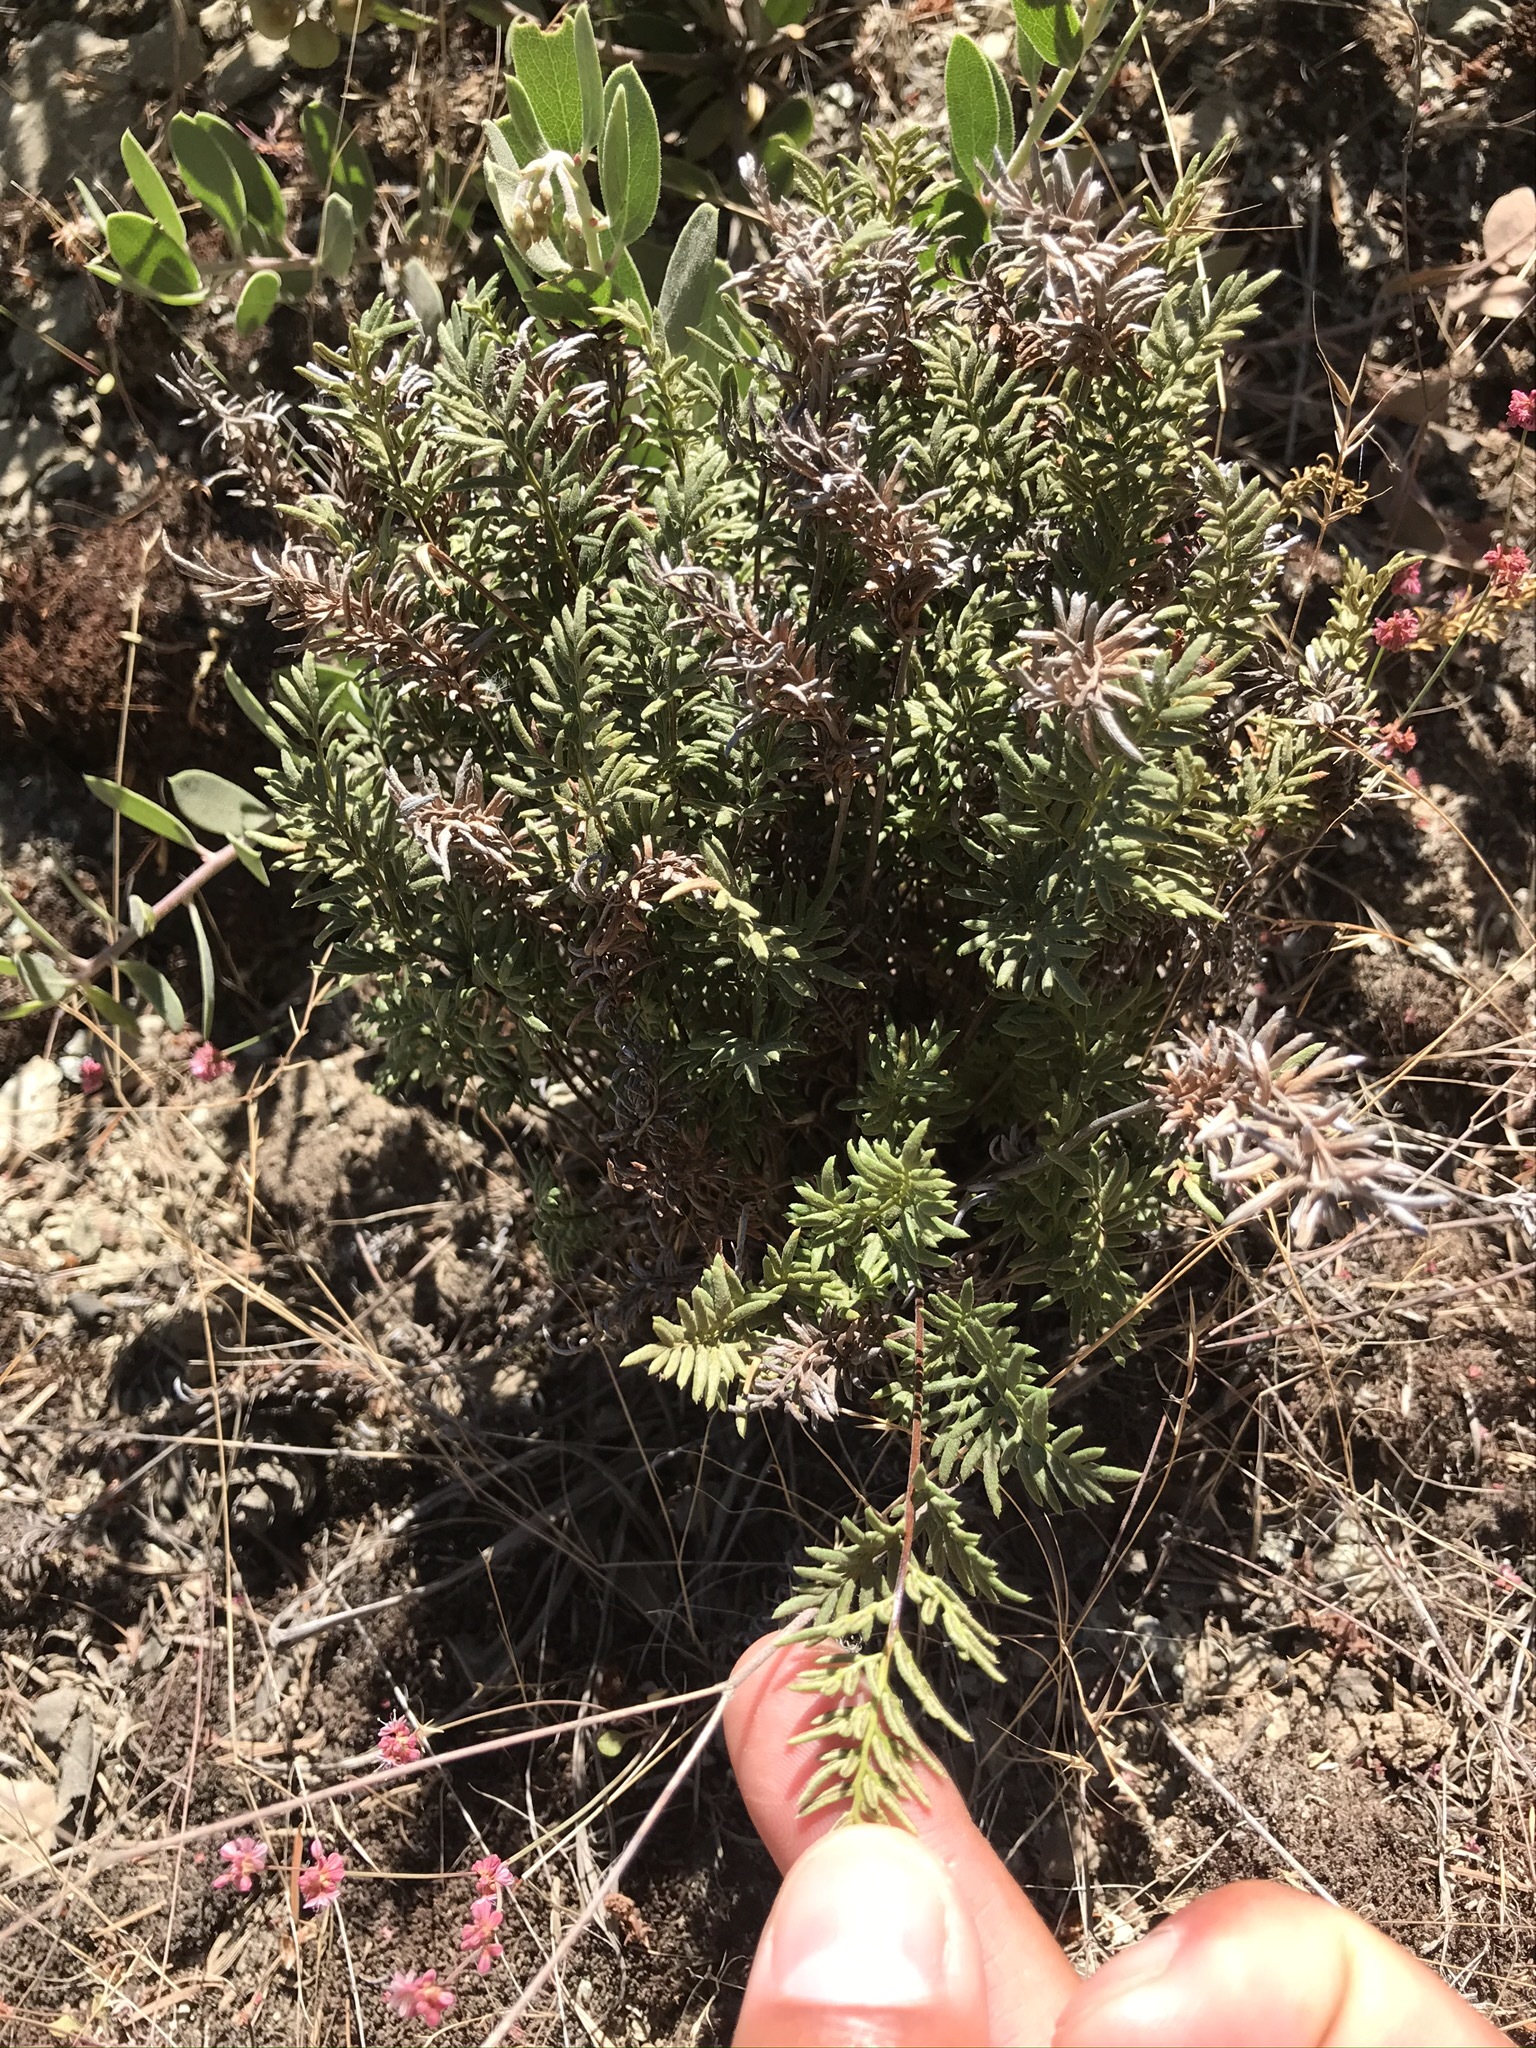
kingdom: Plantae
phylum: Tracheophyta
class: Polypodiopsida
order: Polypodiales
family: Pteridaceae
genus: Aspidotis
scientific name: Aspidotis densa
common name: Indian's dream
